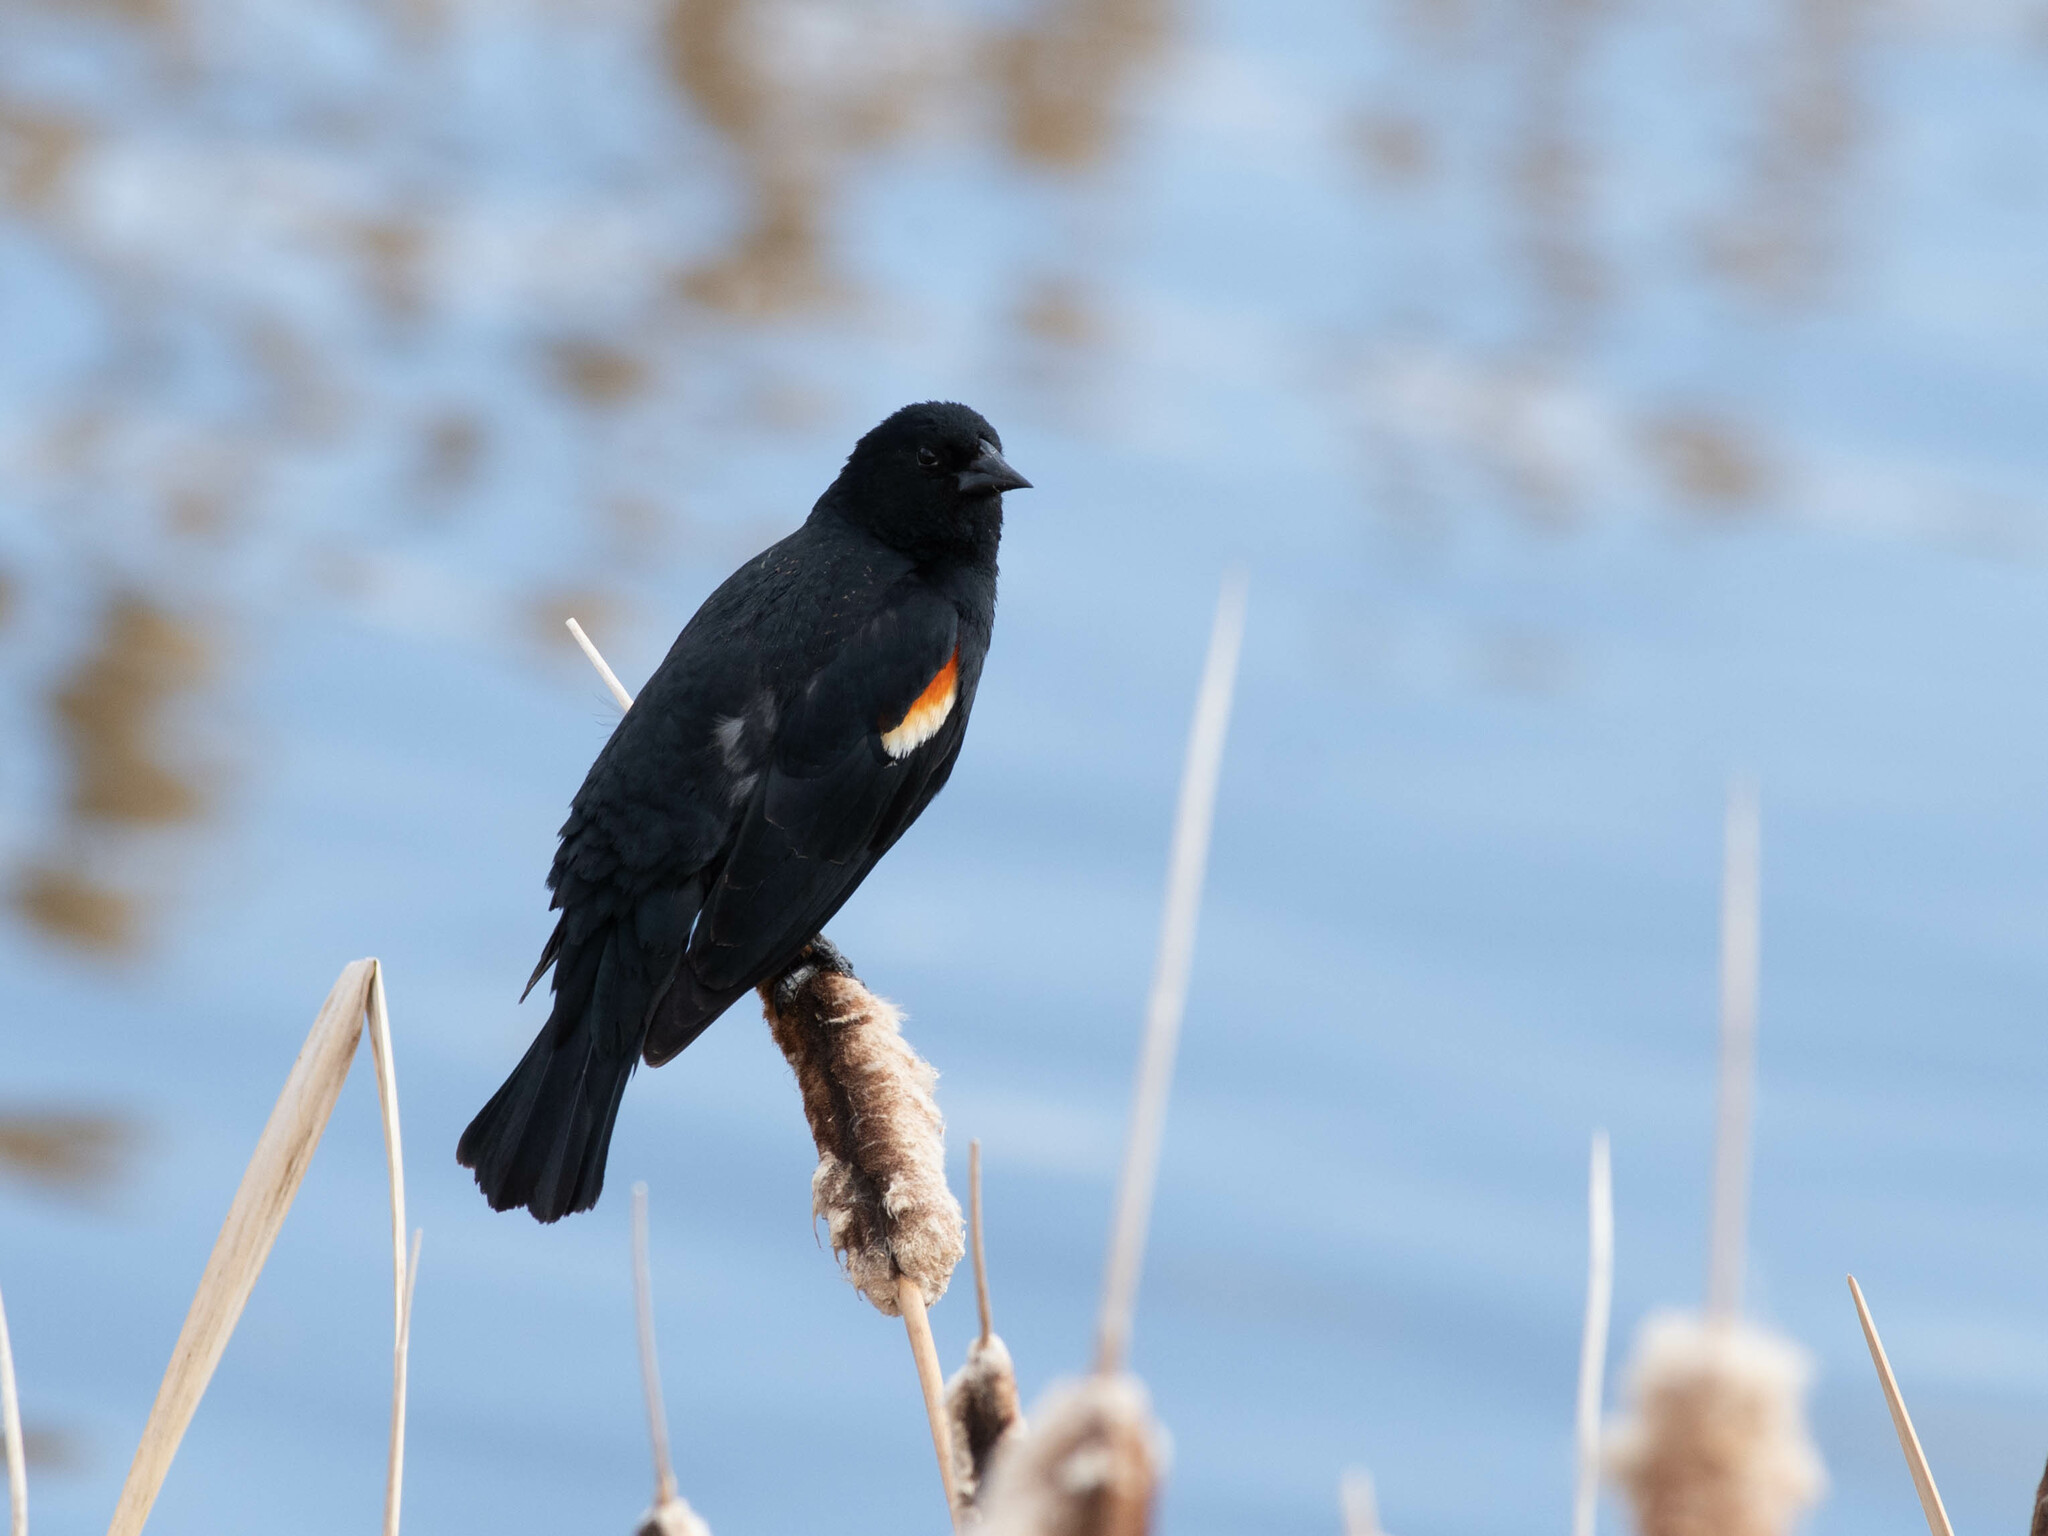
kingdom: Animalia
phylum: Chordata
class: Aves
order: Passeriformes
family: Icteridae
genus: Agelaius
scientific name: Agelaius phoeniceus
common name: Red-winged blackbird
